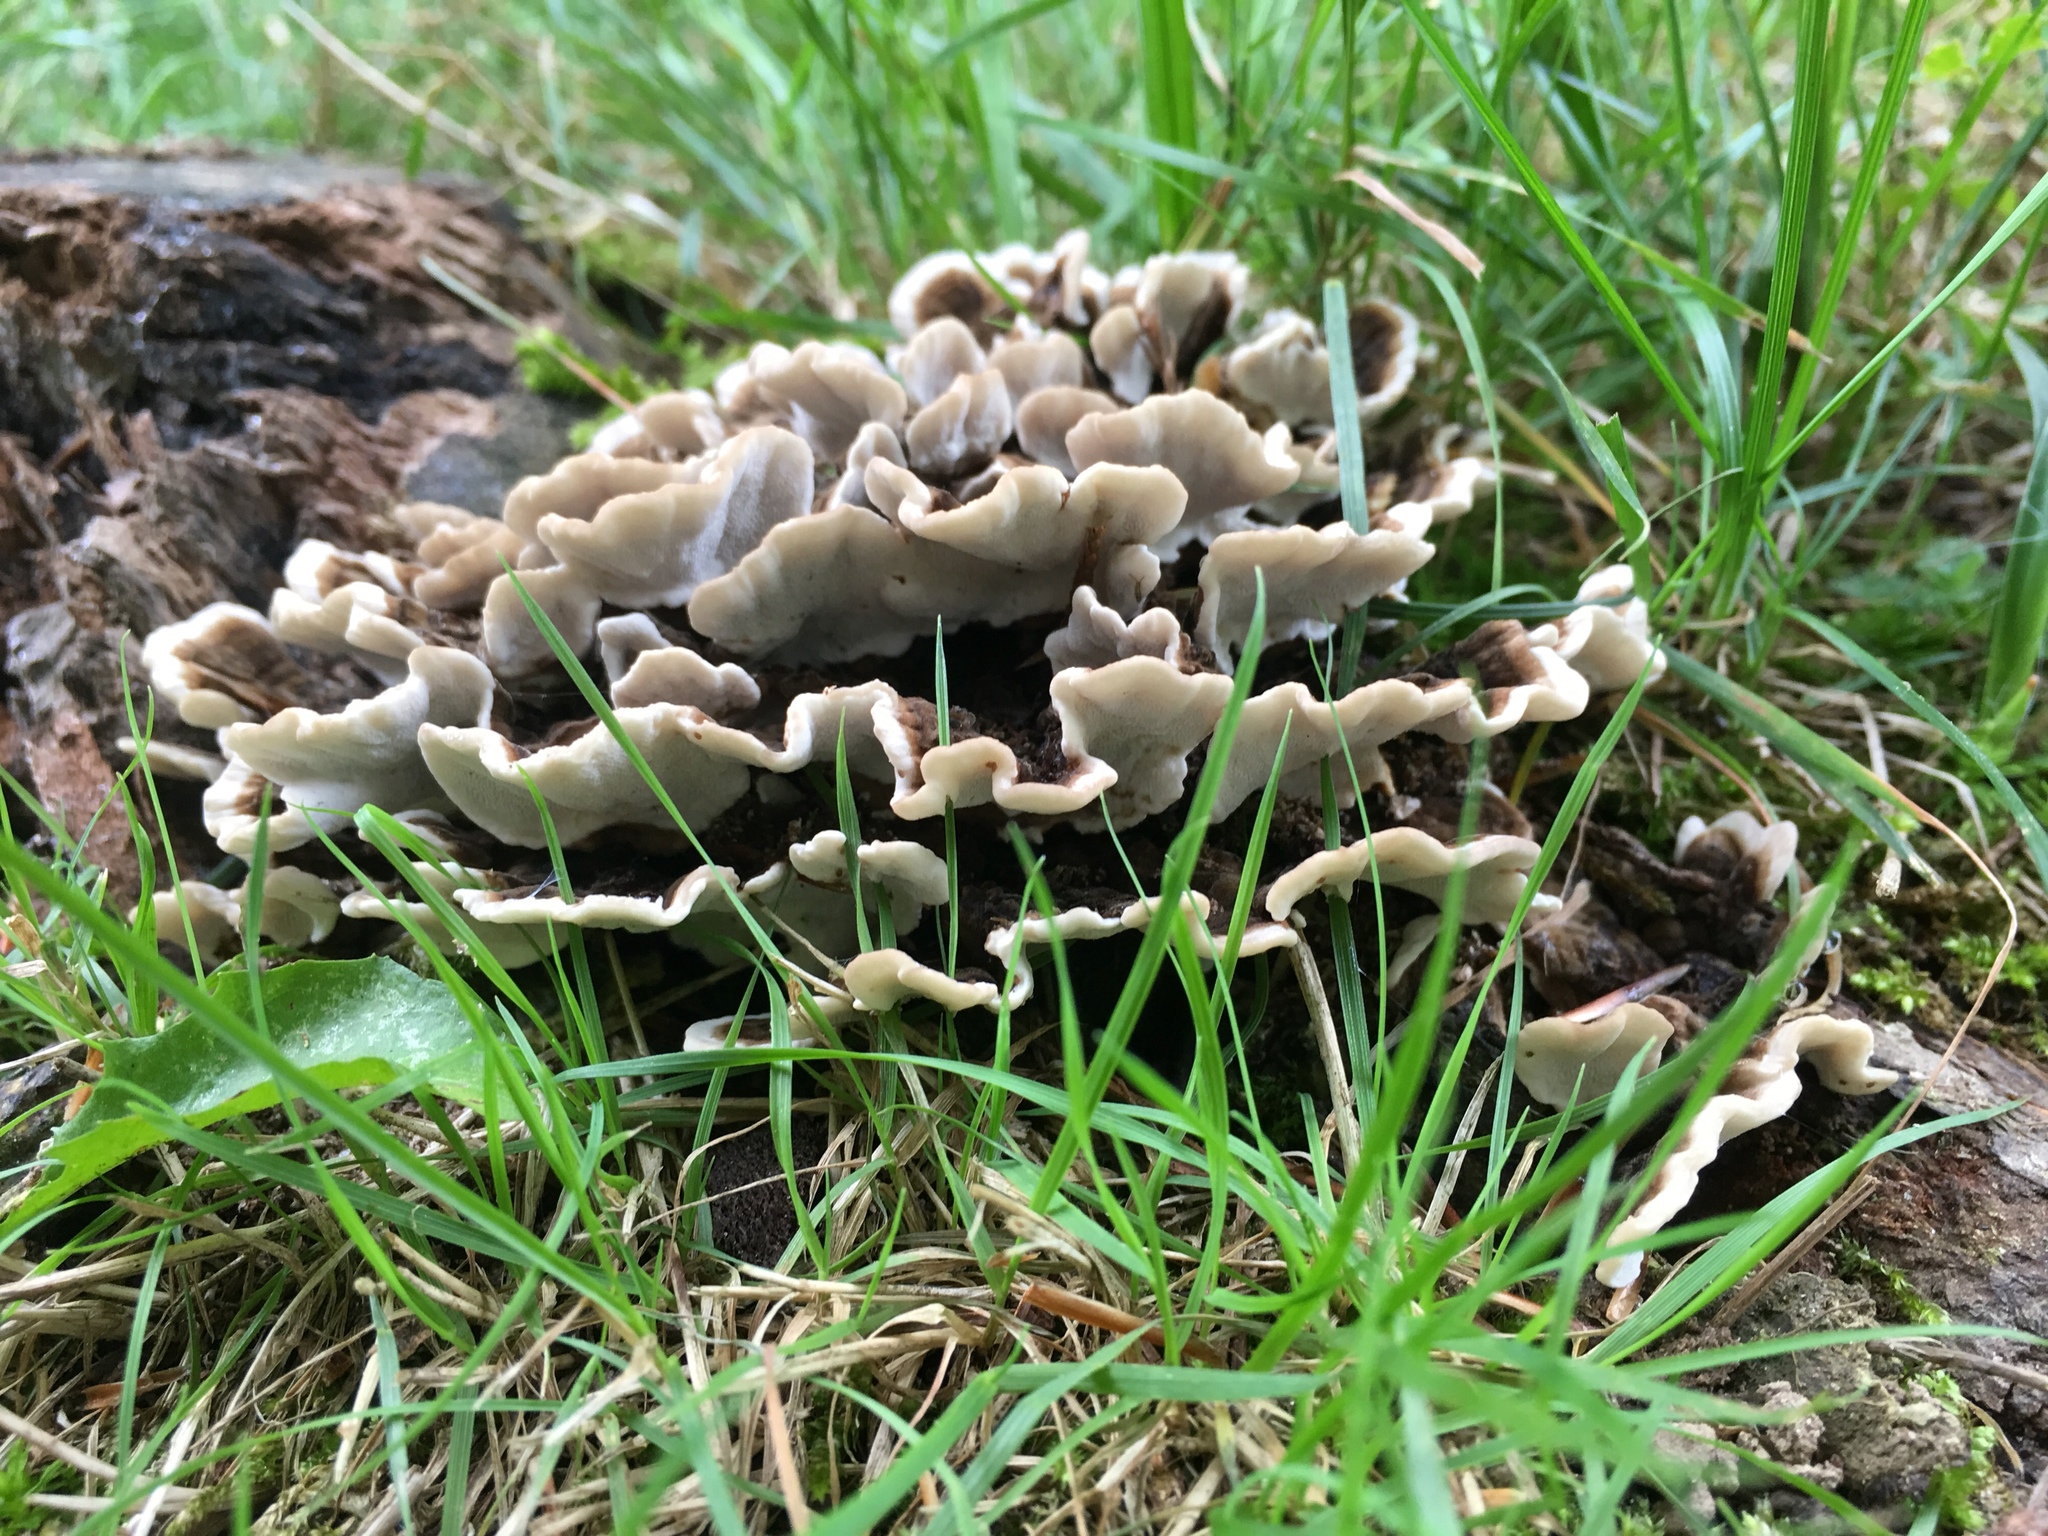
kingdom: Fungi
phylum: Basidiomycota
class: Agaricomycetes
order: Polyporales
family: Polyporaceae
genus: Trametes
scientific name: Trametes versicolor
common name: Turkeytail
